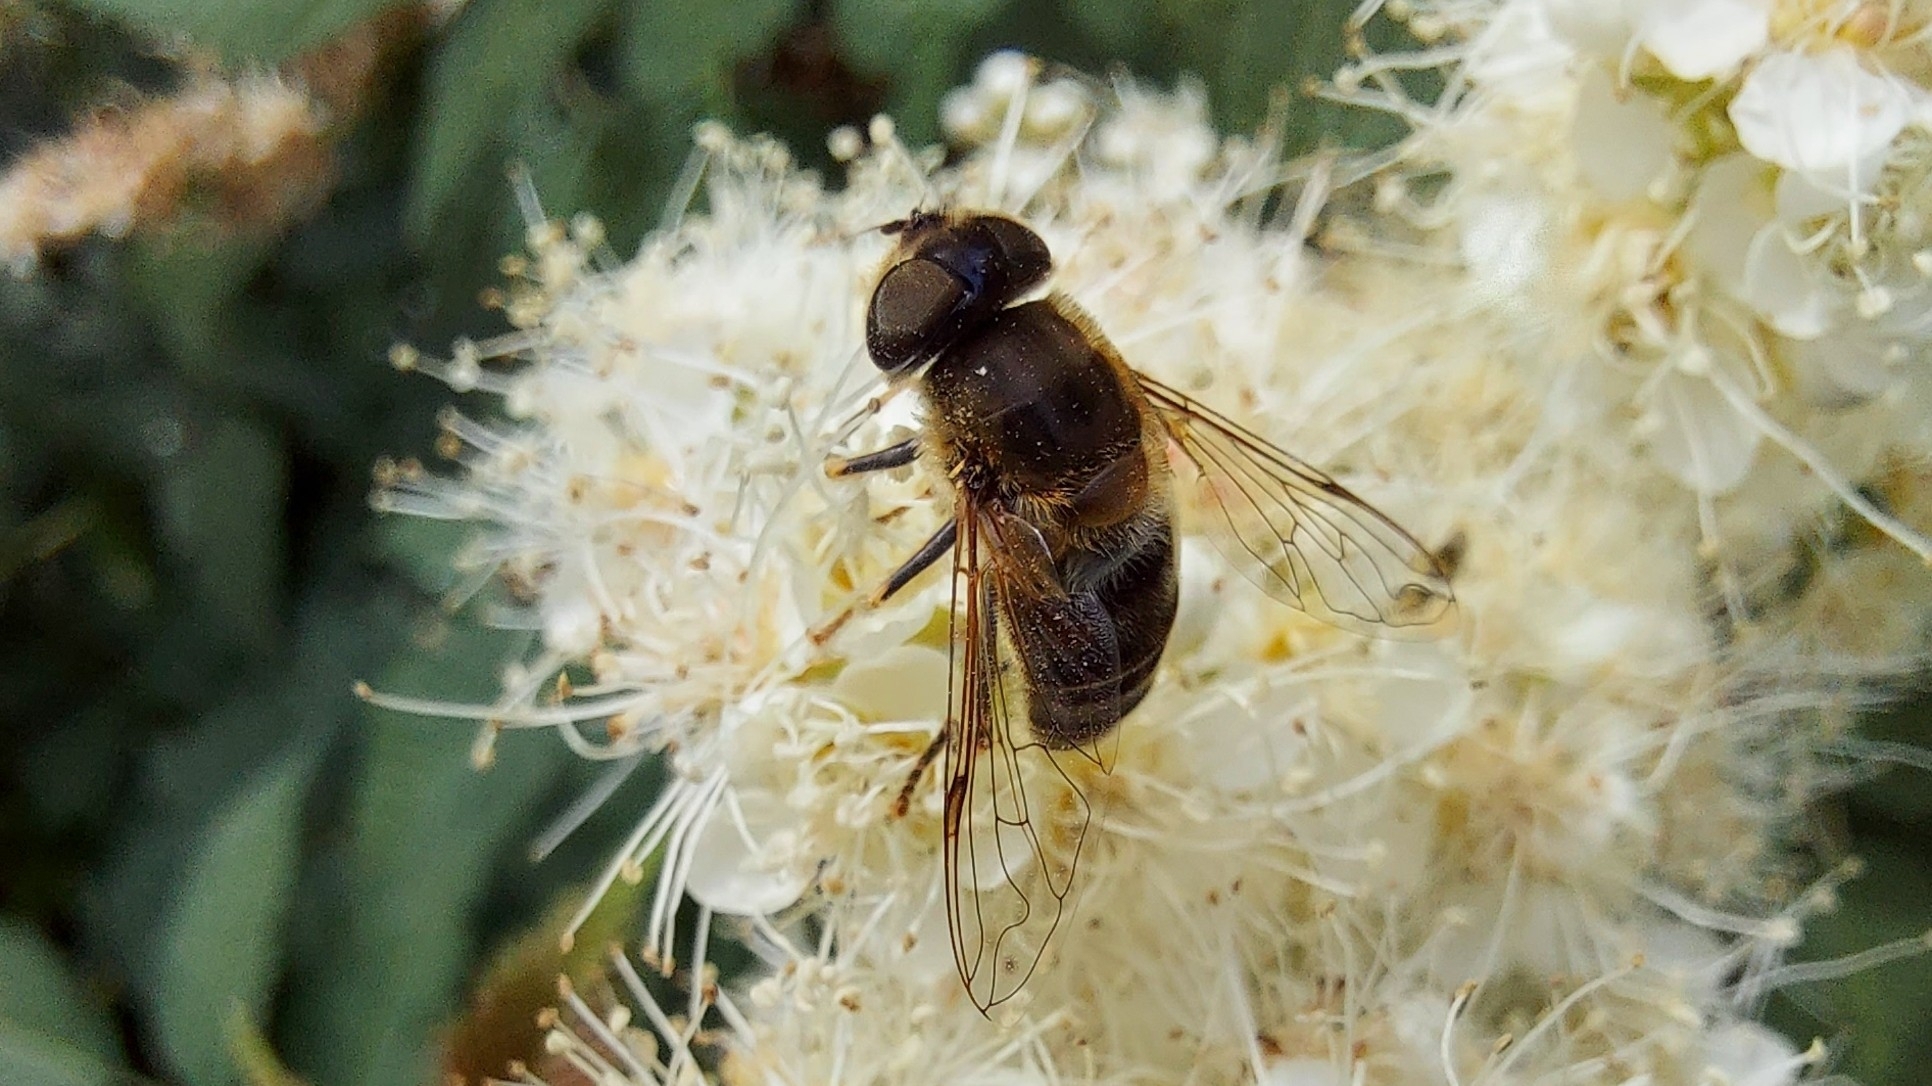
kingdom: Animalia
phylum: Arthropoda
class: Insecta
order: Diptera
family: Syrphidae
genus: Eristalis
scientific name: Eristalis pertinax
